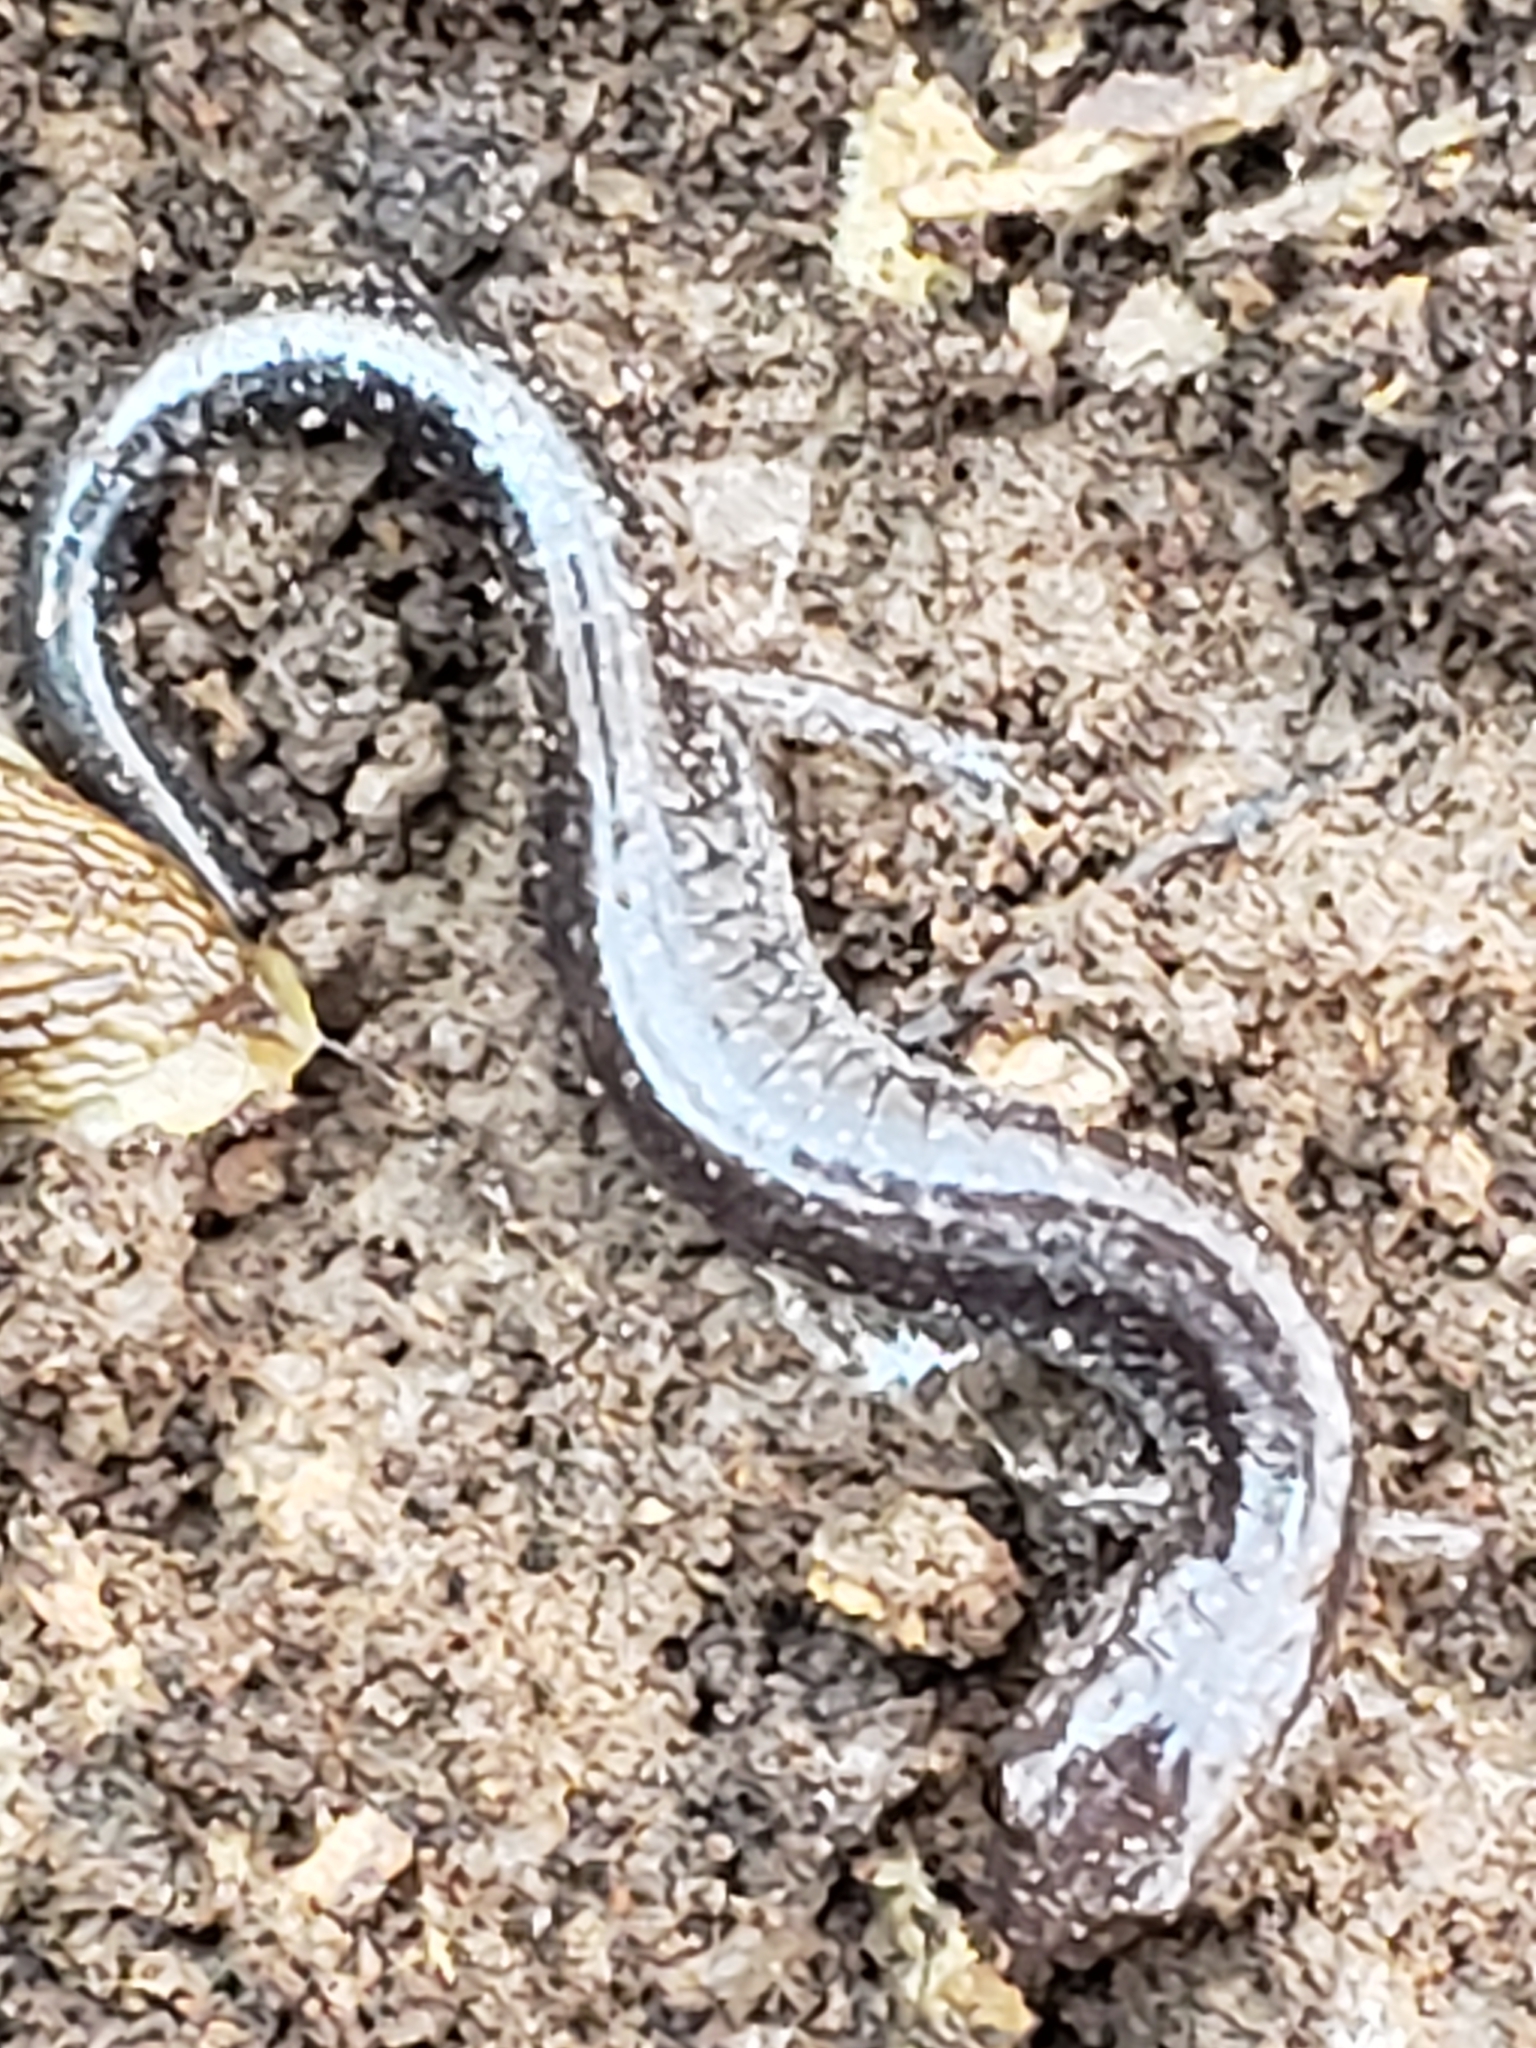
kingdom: Animalia
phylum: Chordata
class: Amphibia
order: Caudata
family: Plethodontidae
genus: Plethodon
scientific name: Plethodon cinereus
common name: Redback salamander
